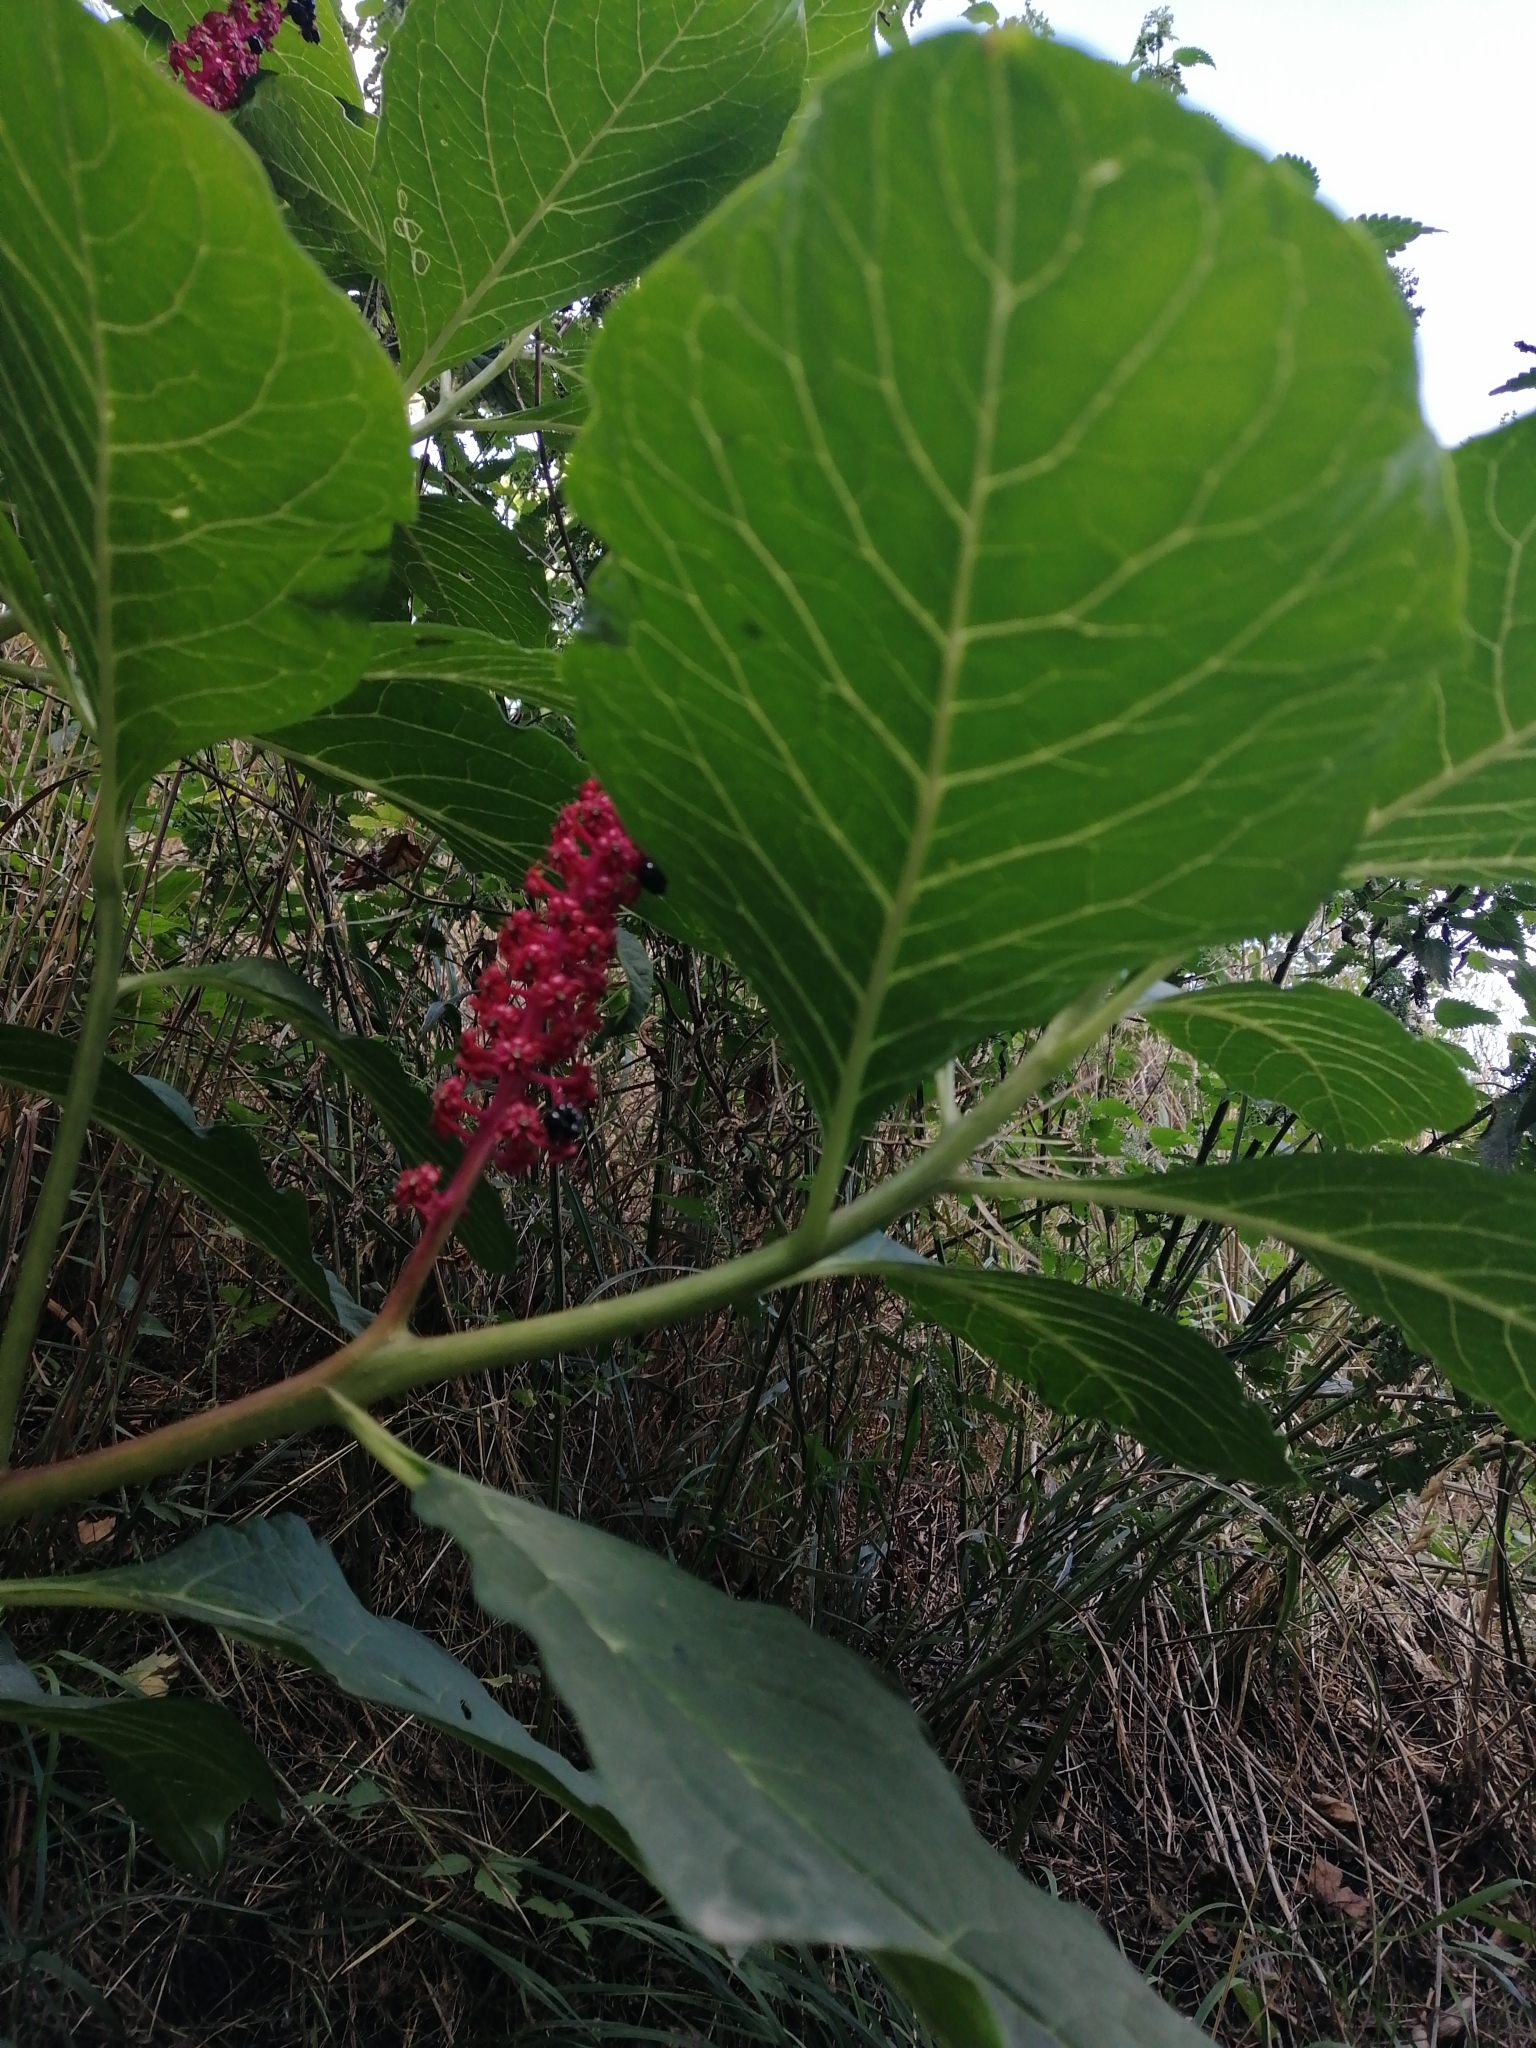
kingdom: Plantae
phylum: Tracheophyta
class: Magnoliopsida
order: Caryophyllales
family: Phytolaccaceae
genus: Phytolacca
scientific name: Phytolacca acinosa
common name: Indian pokeweed
